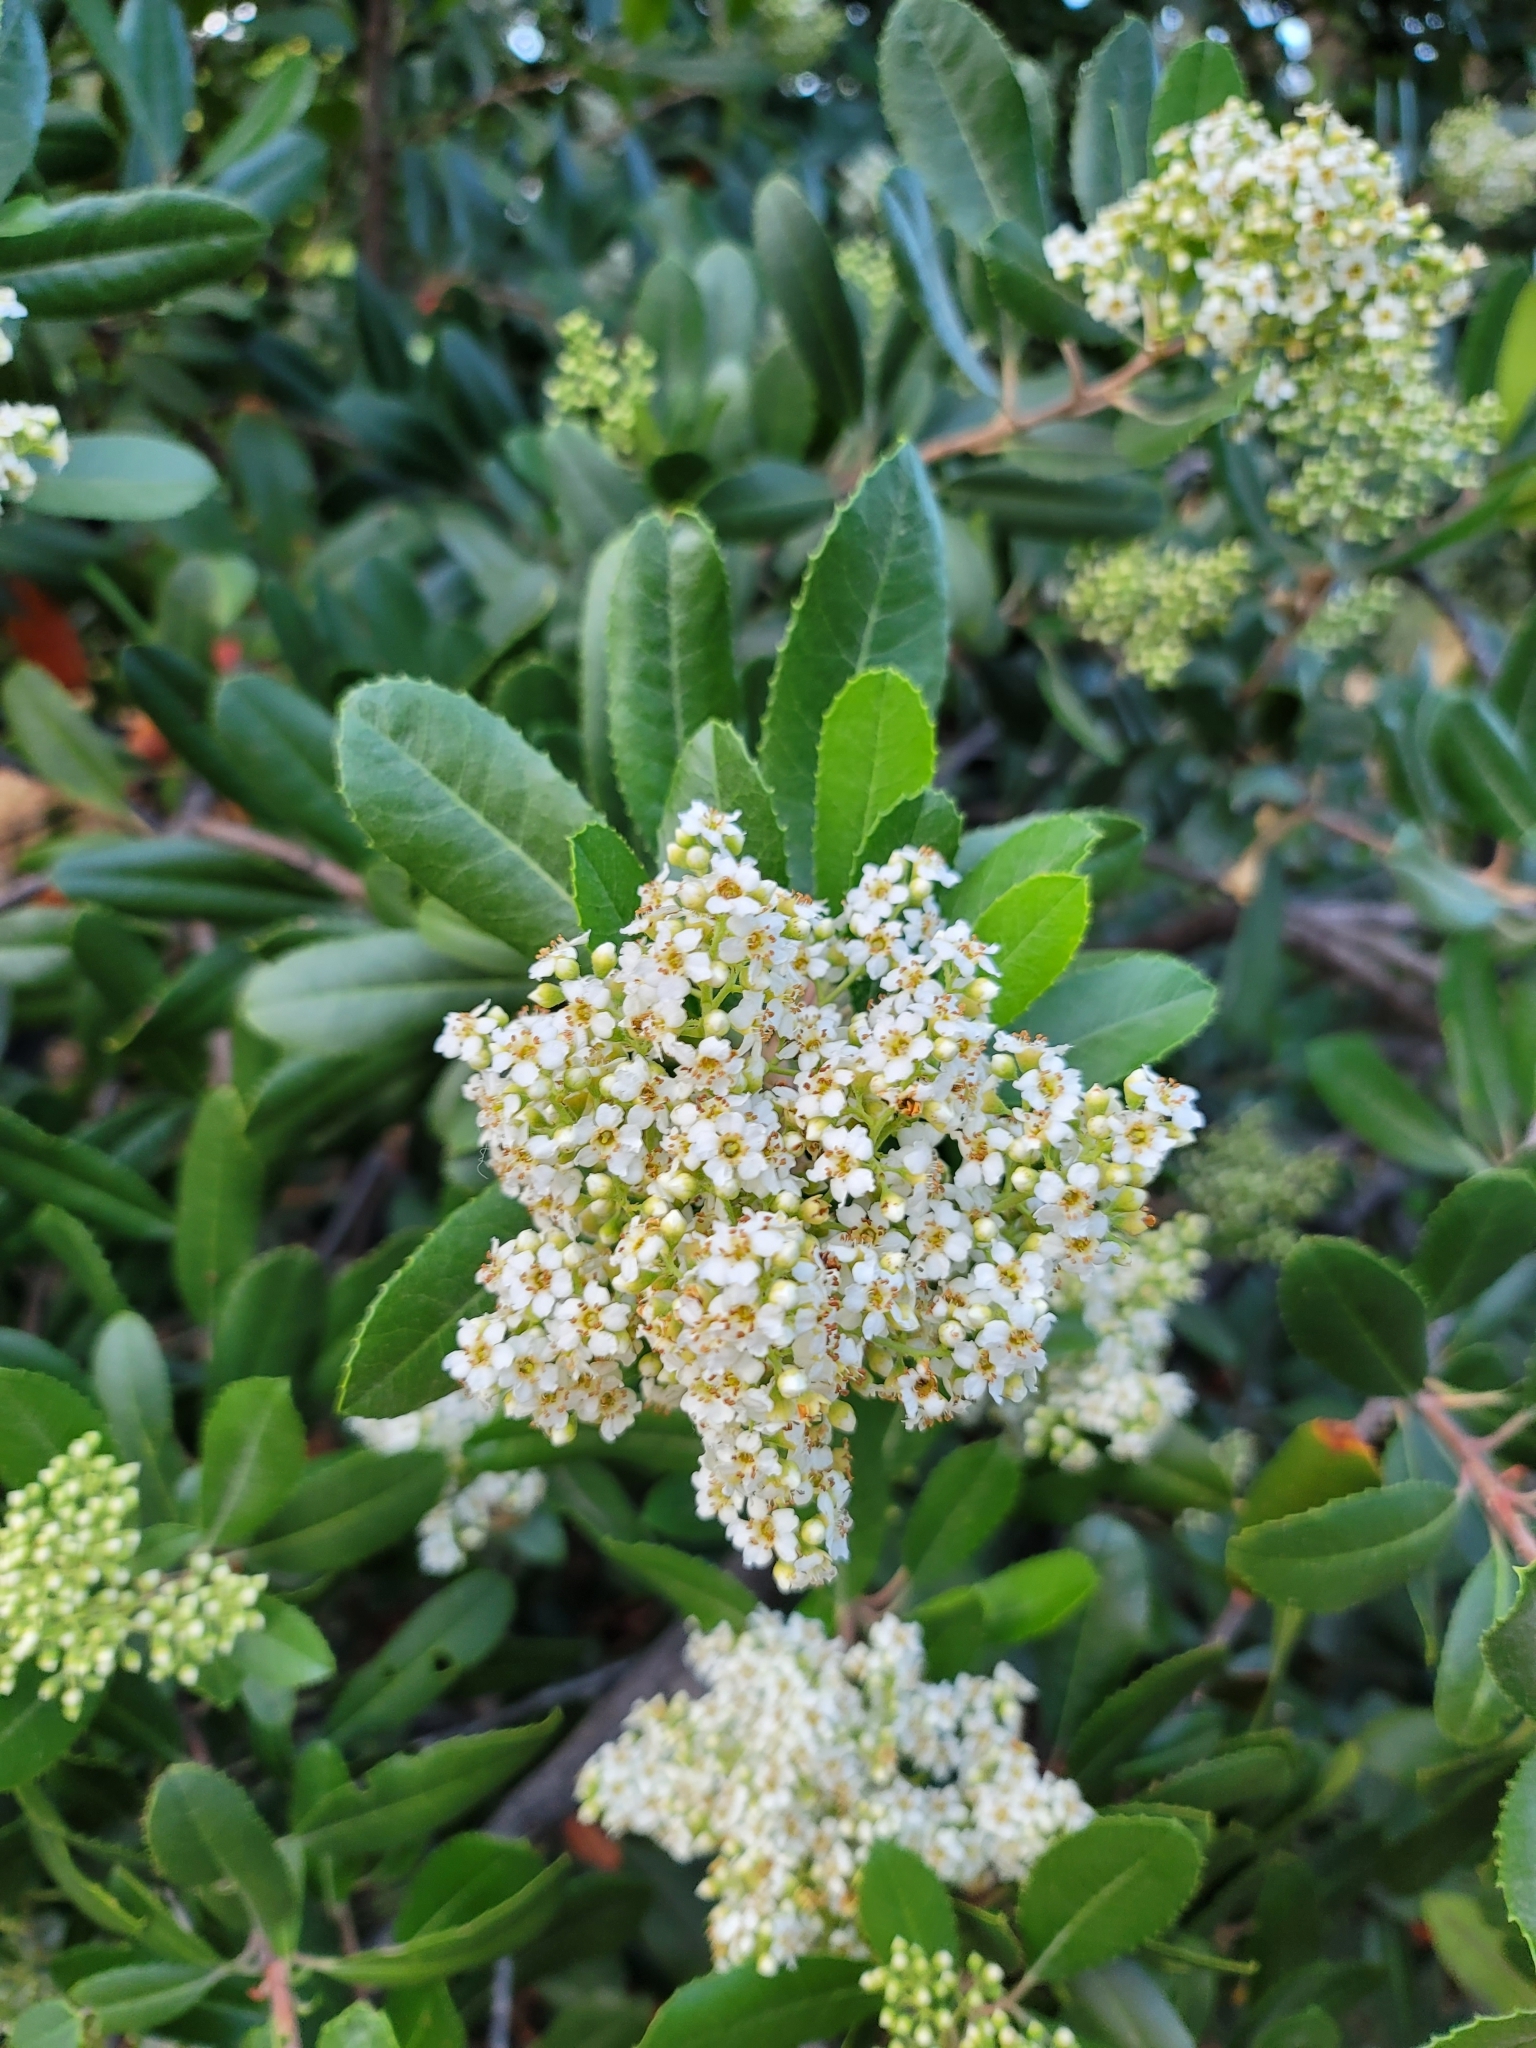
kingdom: Plantae
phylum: Tracheophyta
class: Magnoliopsida
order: Rosales
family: Rosaceae
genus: Heteromeles
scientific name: Heteromeles arbutifolia
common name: California-holly
